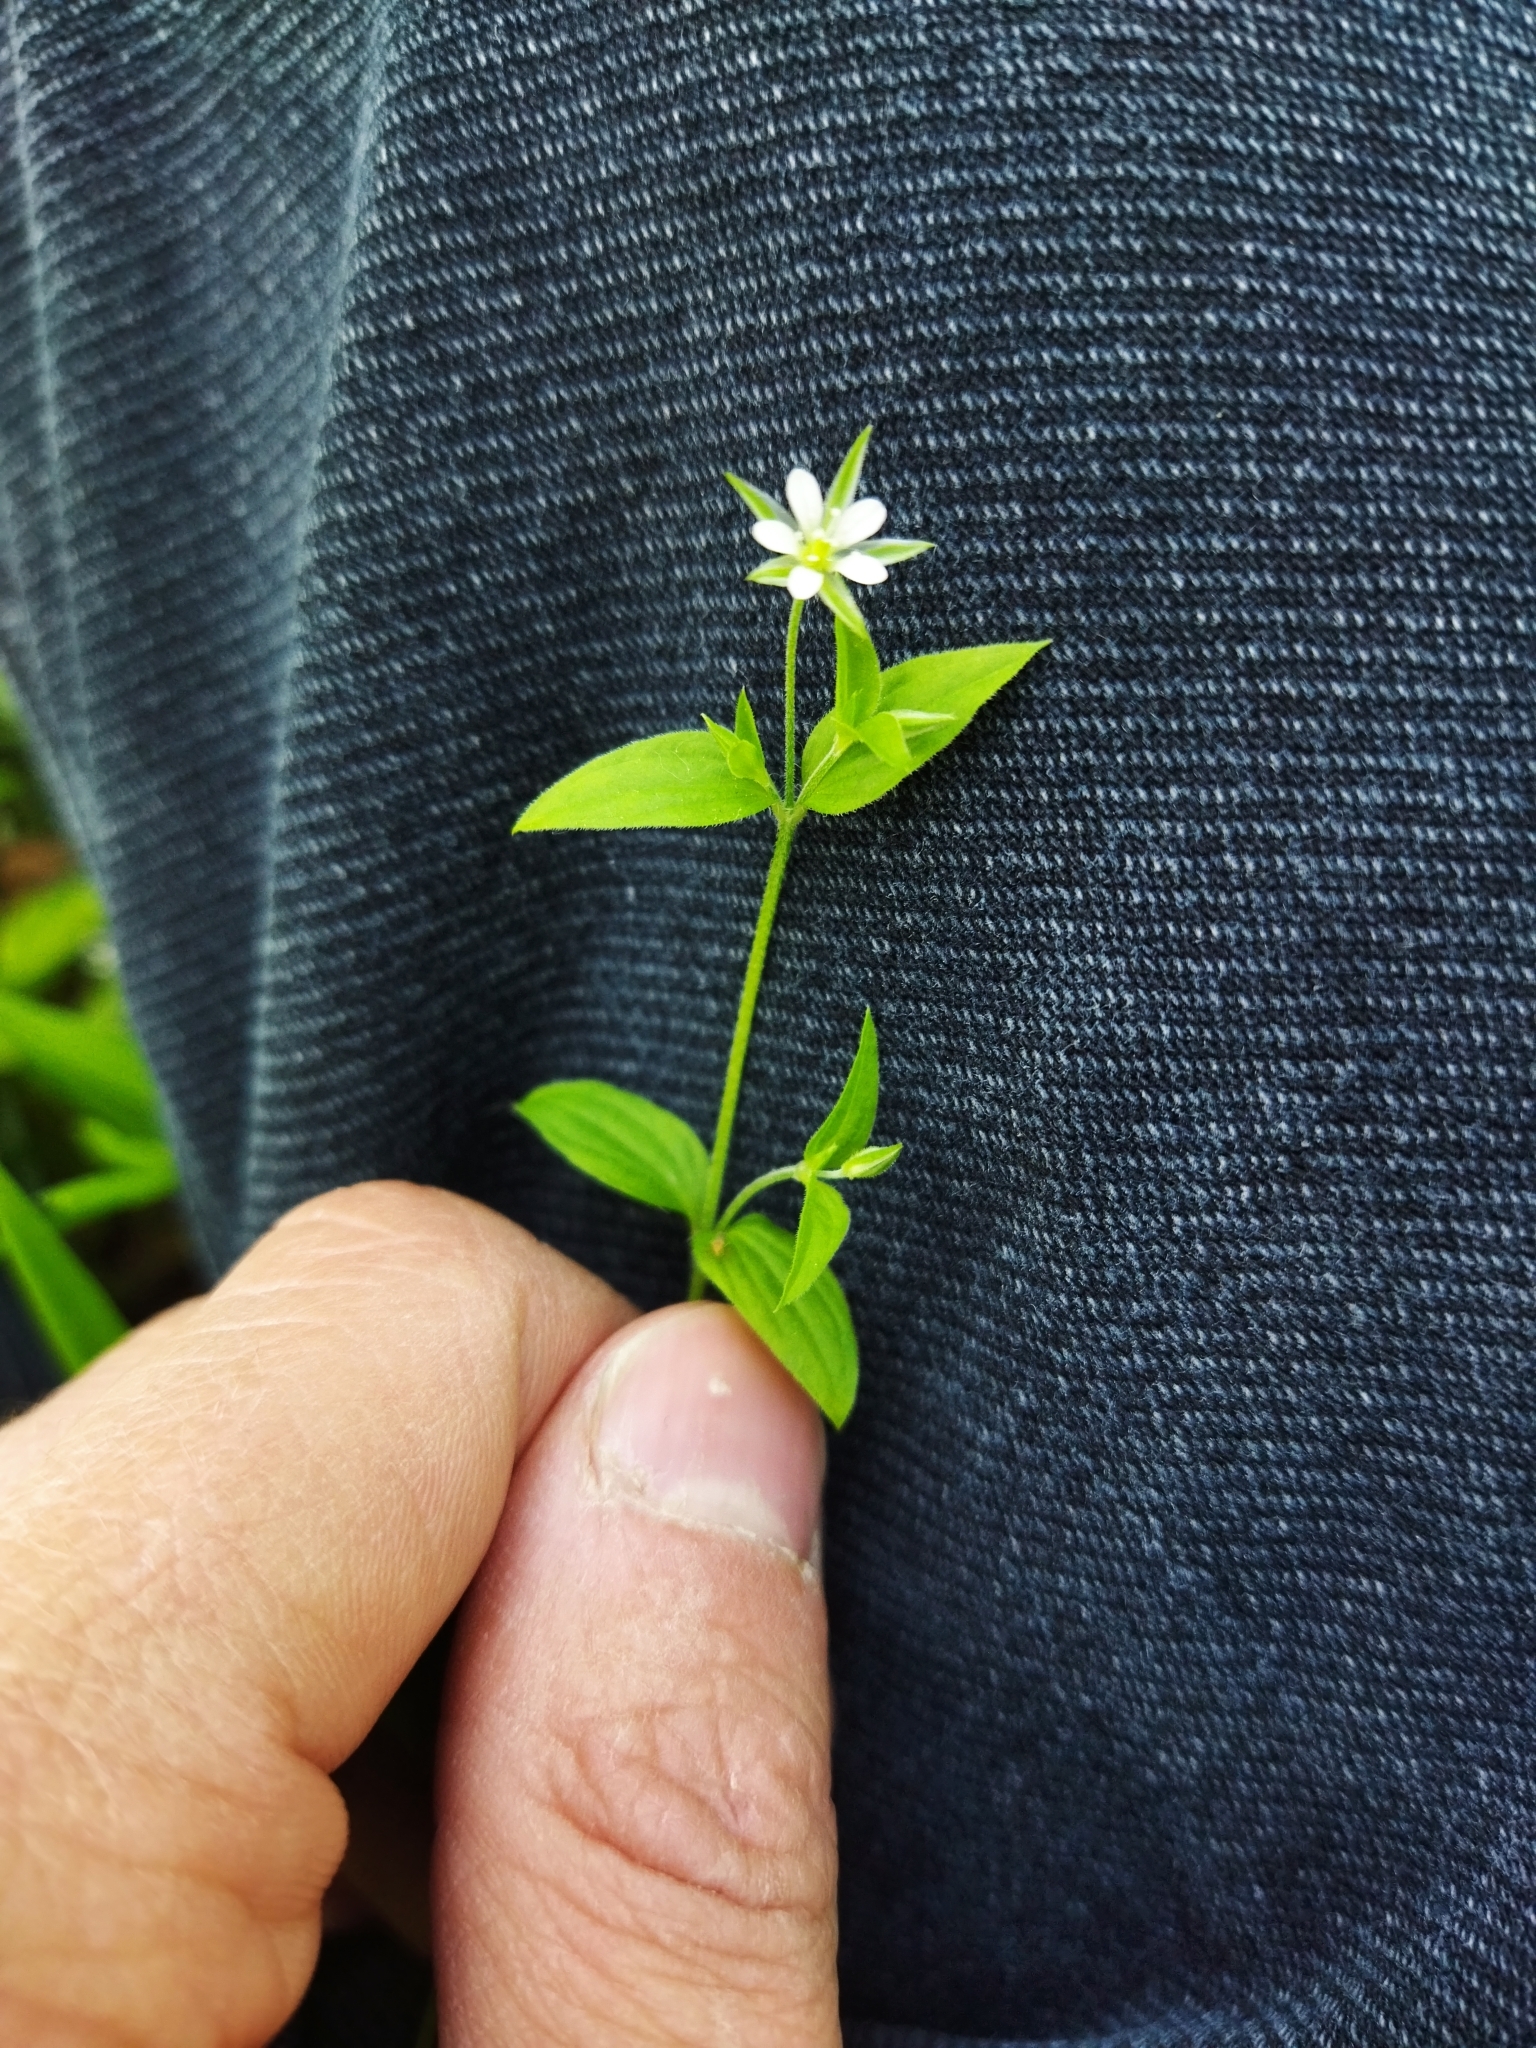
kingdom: Plantae
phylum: Tracheophyta
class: Magnoliopsida
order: Caryophyllales
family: Caryophyllaceae
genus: Moehringia
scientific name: Moehringia trinervia
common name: Three-nerved sandwort
